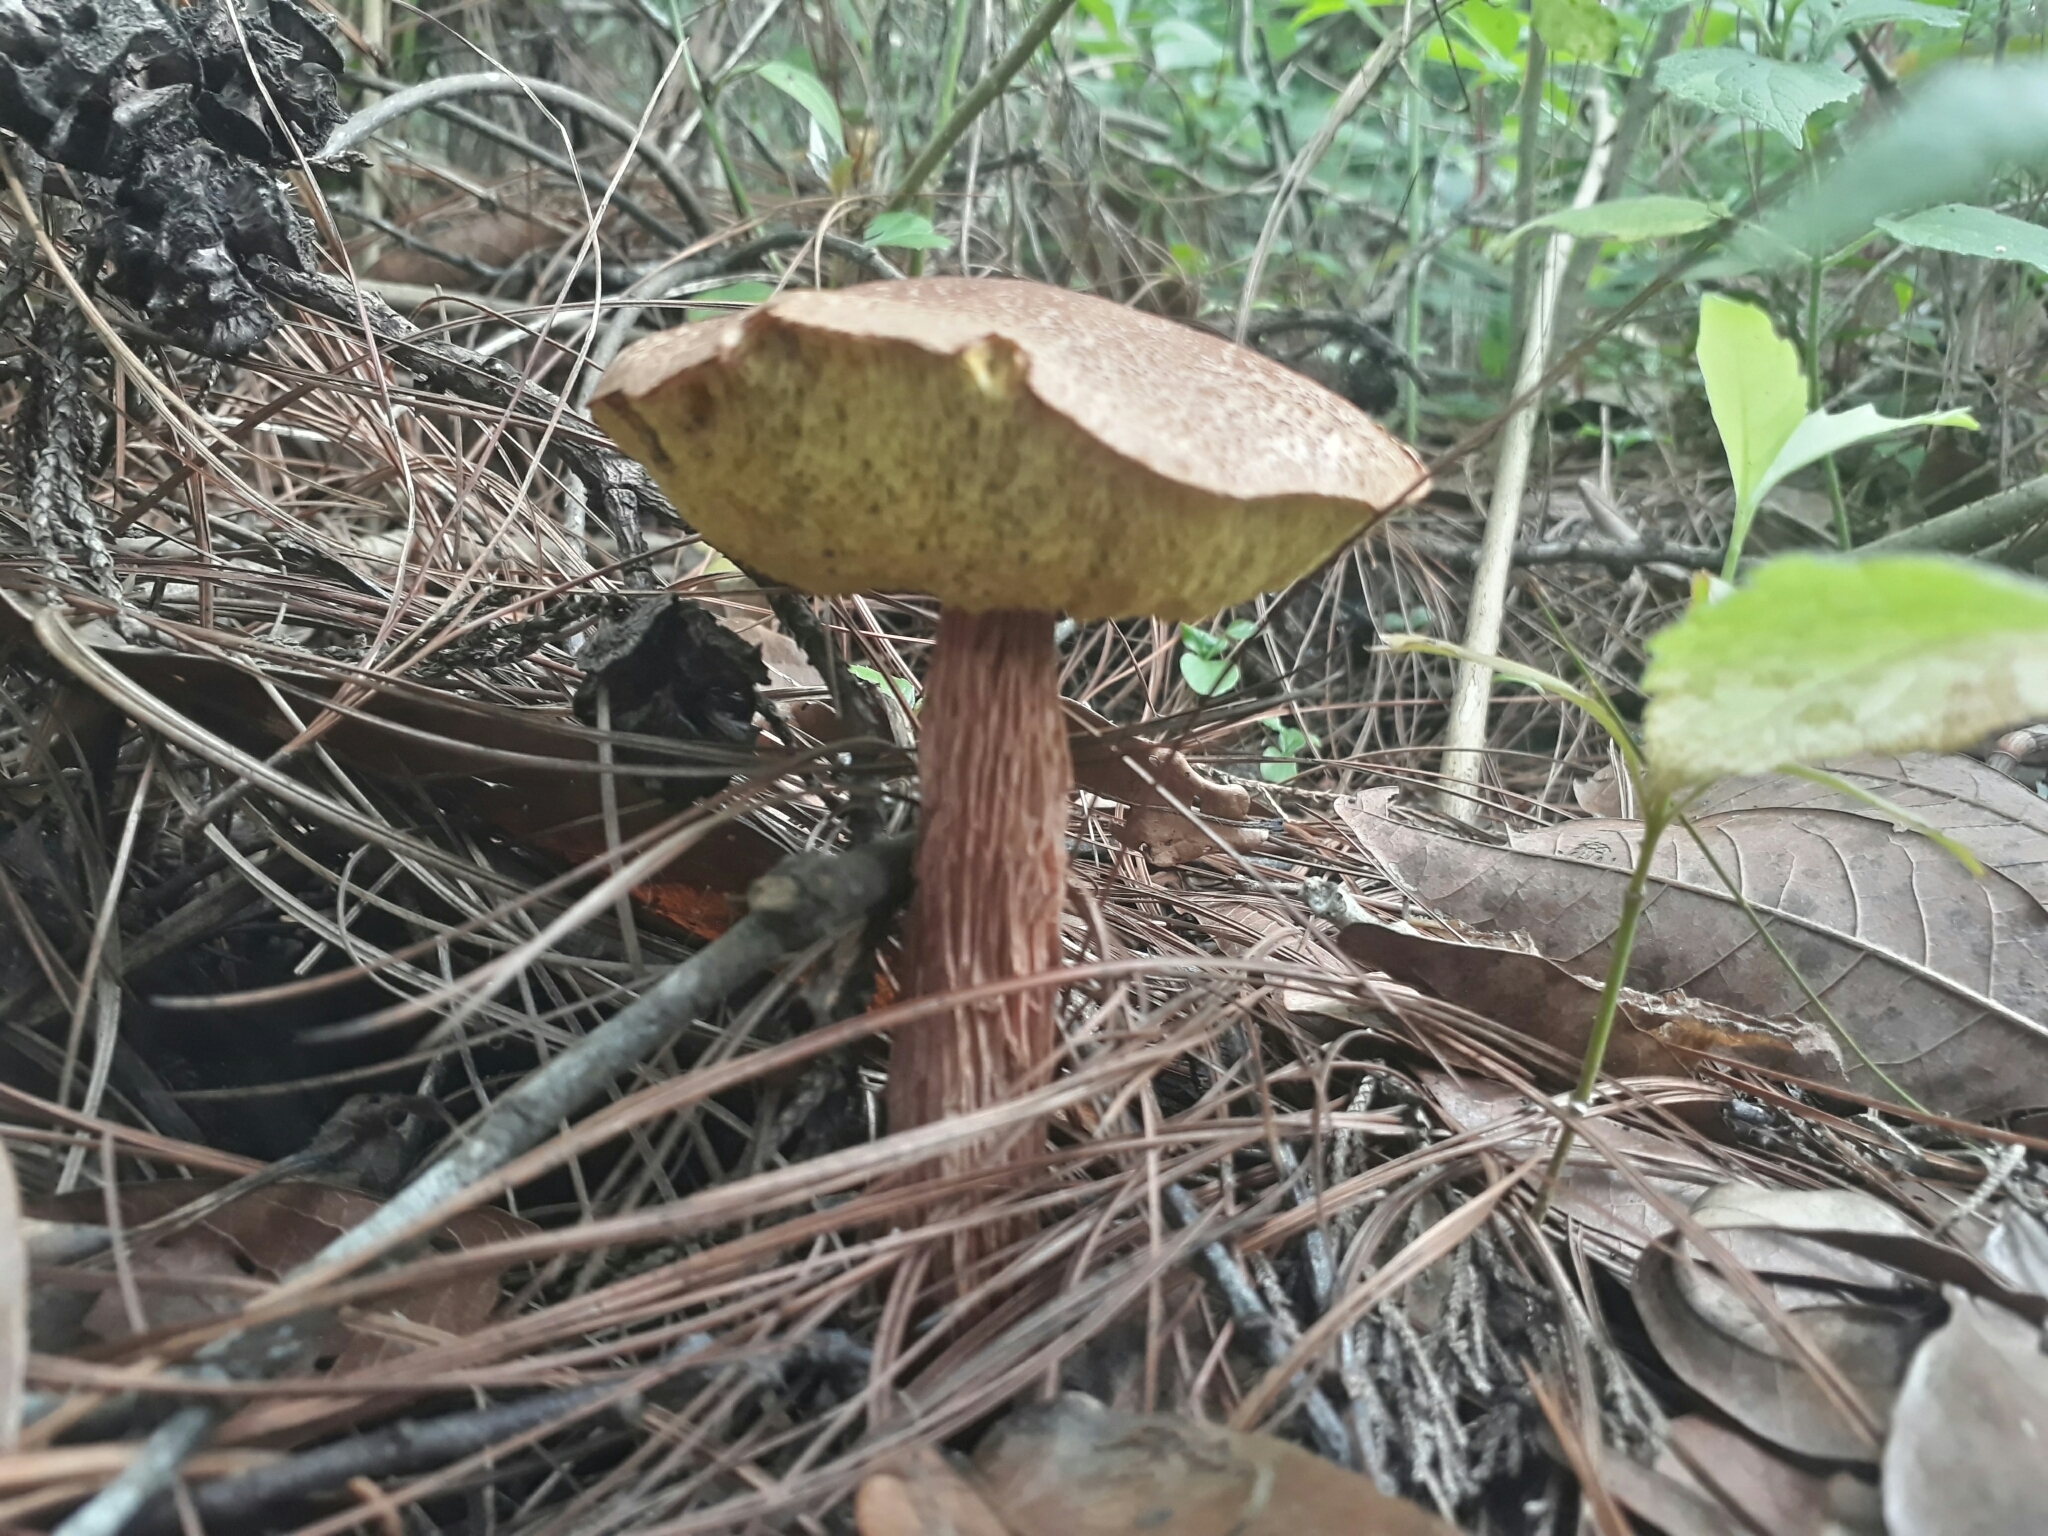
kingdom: Fungi
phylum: Basidiomycota
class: Agaricomycetes
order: Boletales
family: Boletaceae
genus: Aureoboletus
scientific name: Aureoboletus russellii
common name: Russell's bolete
